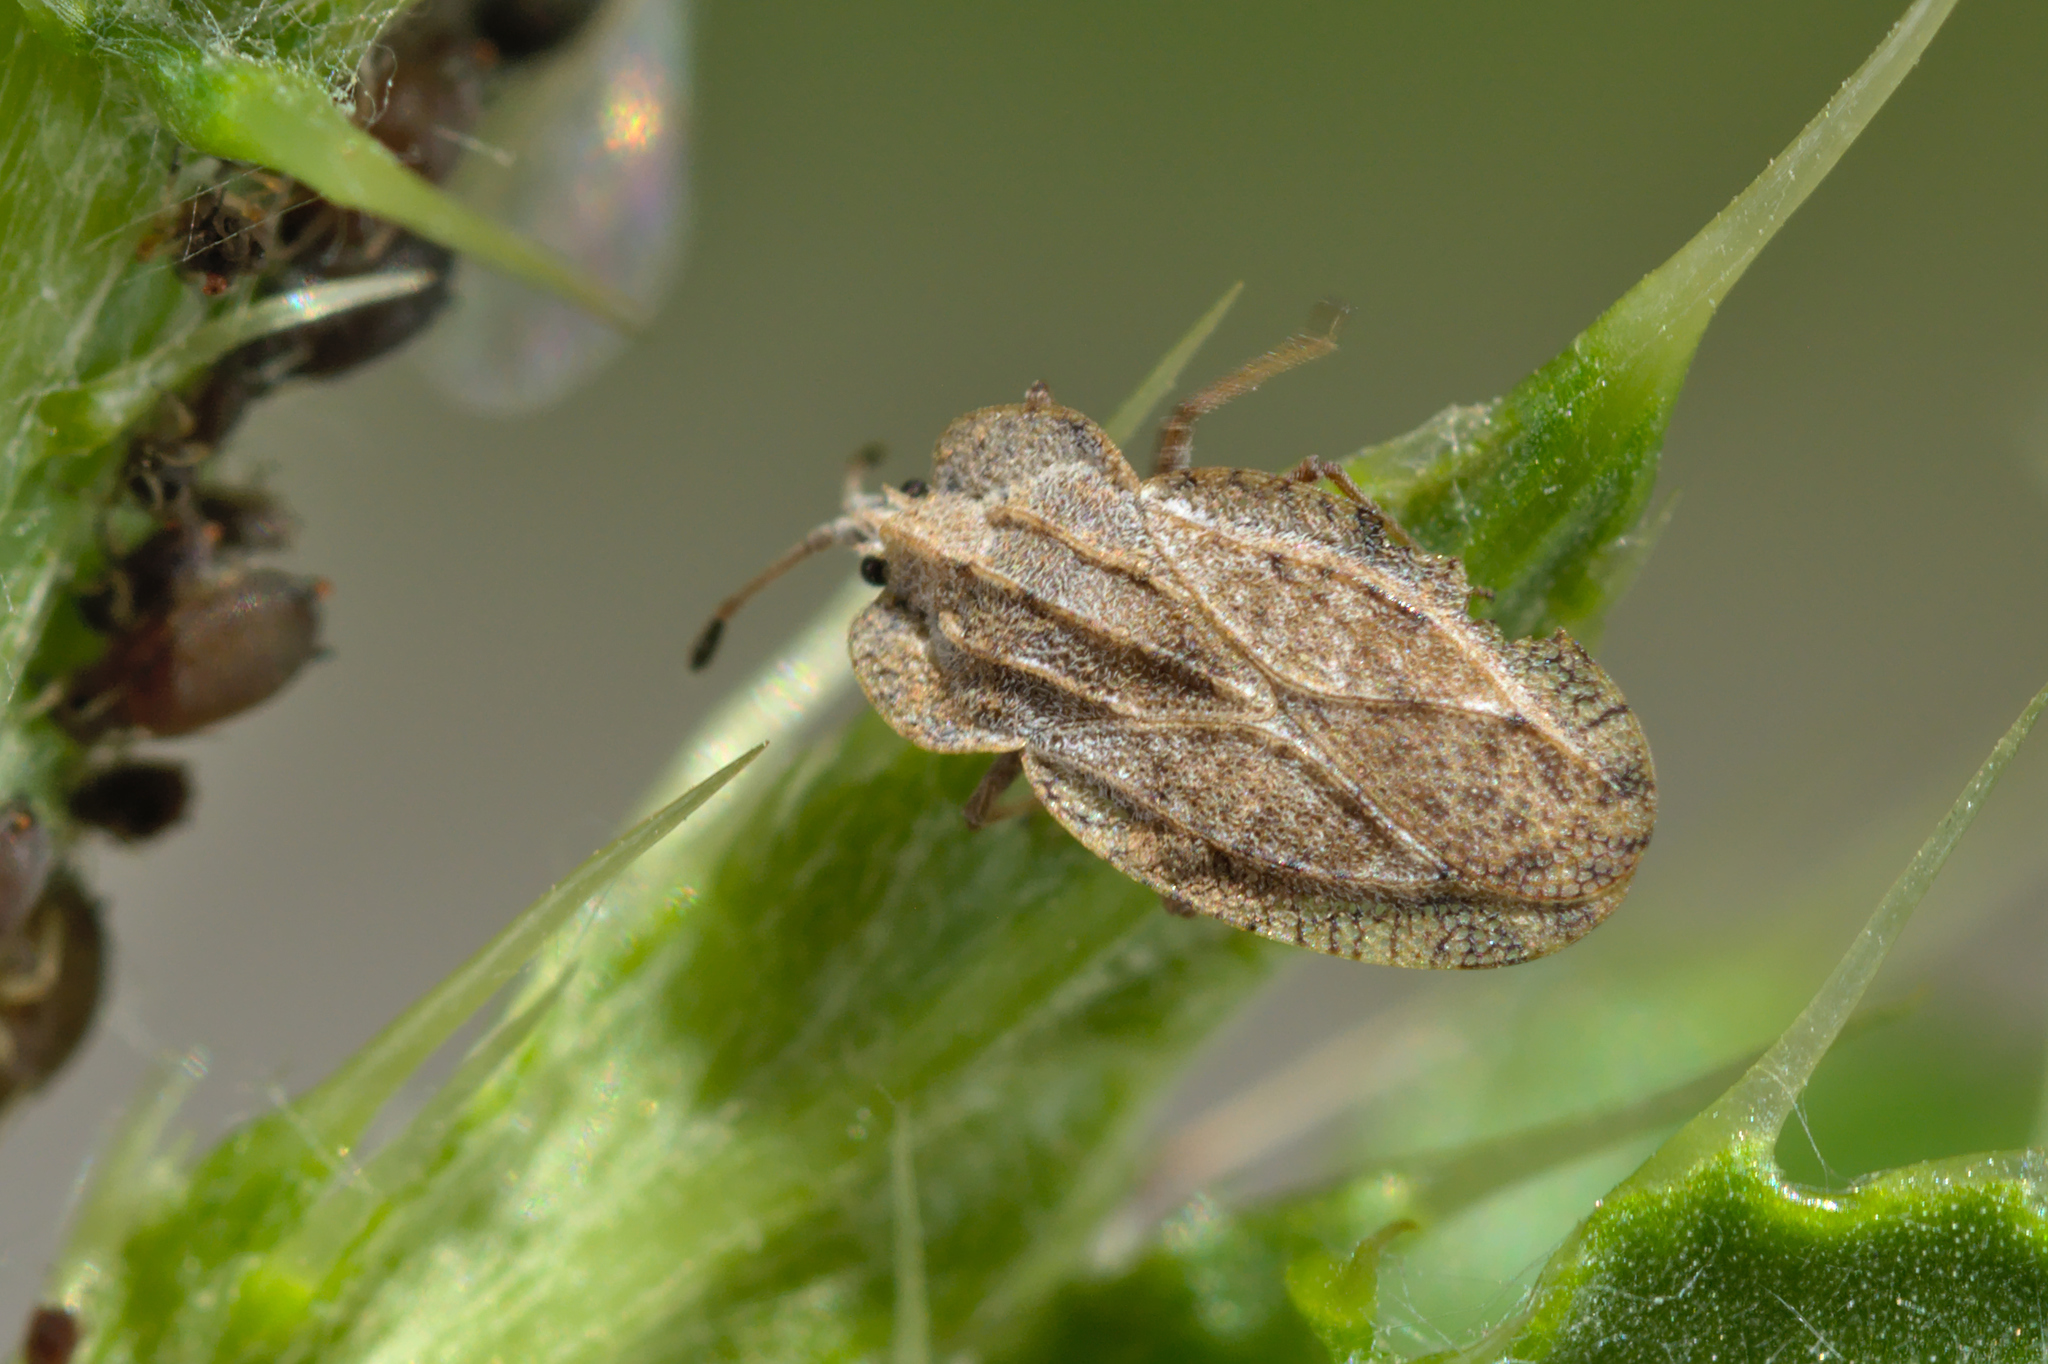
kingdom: Animalia
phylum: Arthropoda
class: Insecta
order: Hemiptera
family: Tingidae
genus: Tingis
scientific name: Tingis ampliata
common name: Creeping thistle lacebug
